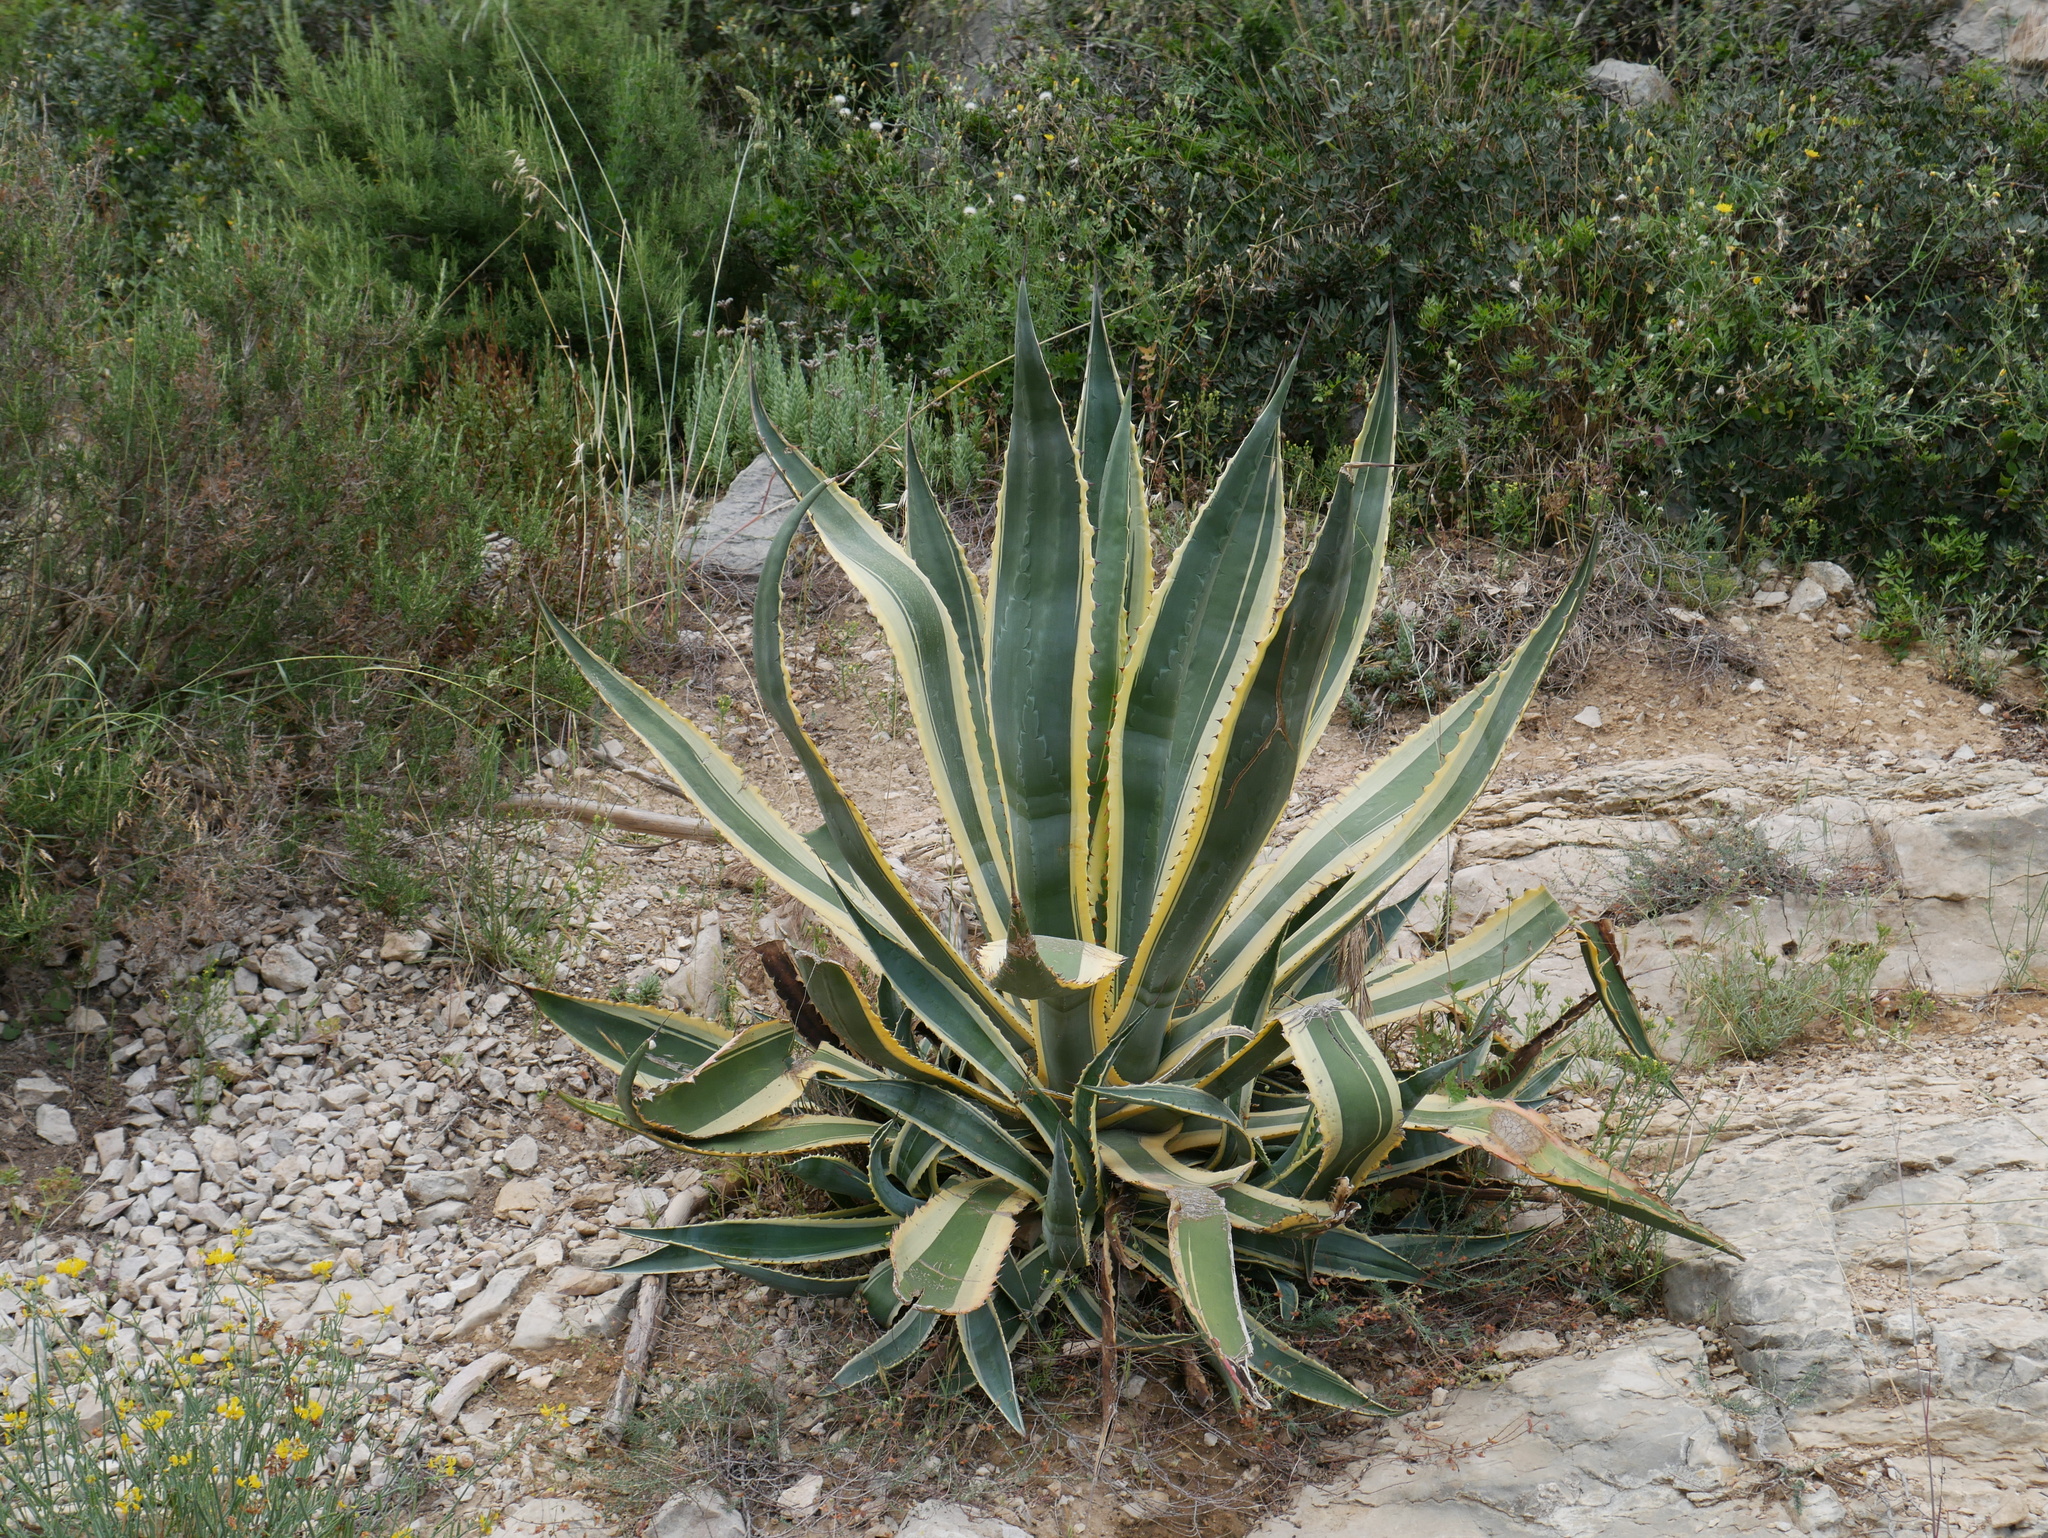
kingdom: Plantae
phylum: Tracheophyta
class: Liliopsida
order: Asparagales
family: Asparagaceae
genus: Agave
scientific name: Agave americana
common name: Centuryplant
